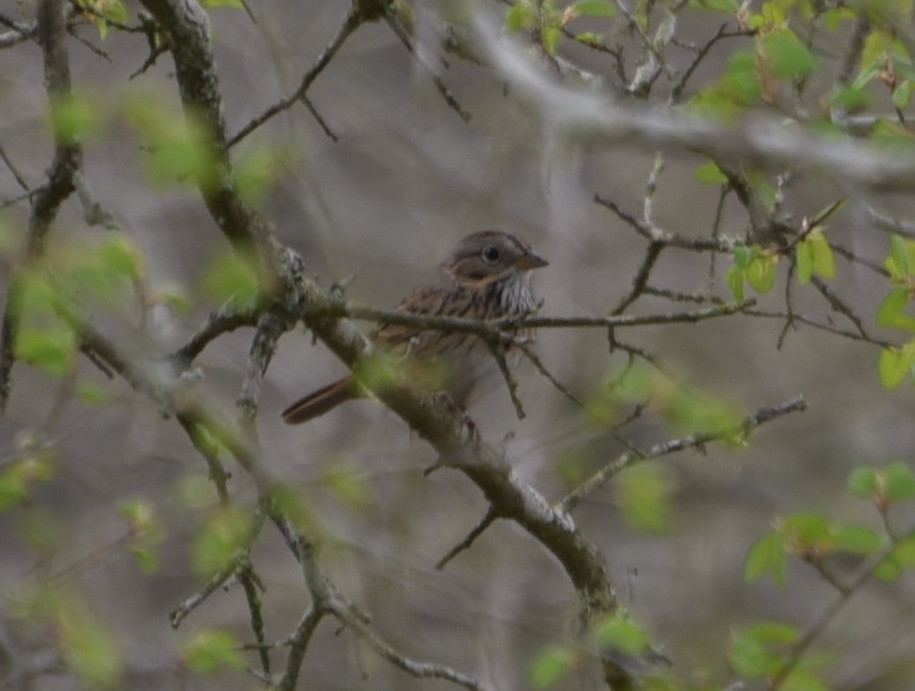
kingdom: Animalia
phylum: Chordata
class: Aves
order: Passeriformes
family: Passerellidae
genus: Melospiza
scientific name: Melospiza lincolnii
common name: Lincoln's sparrow
